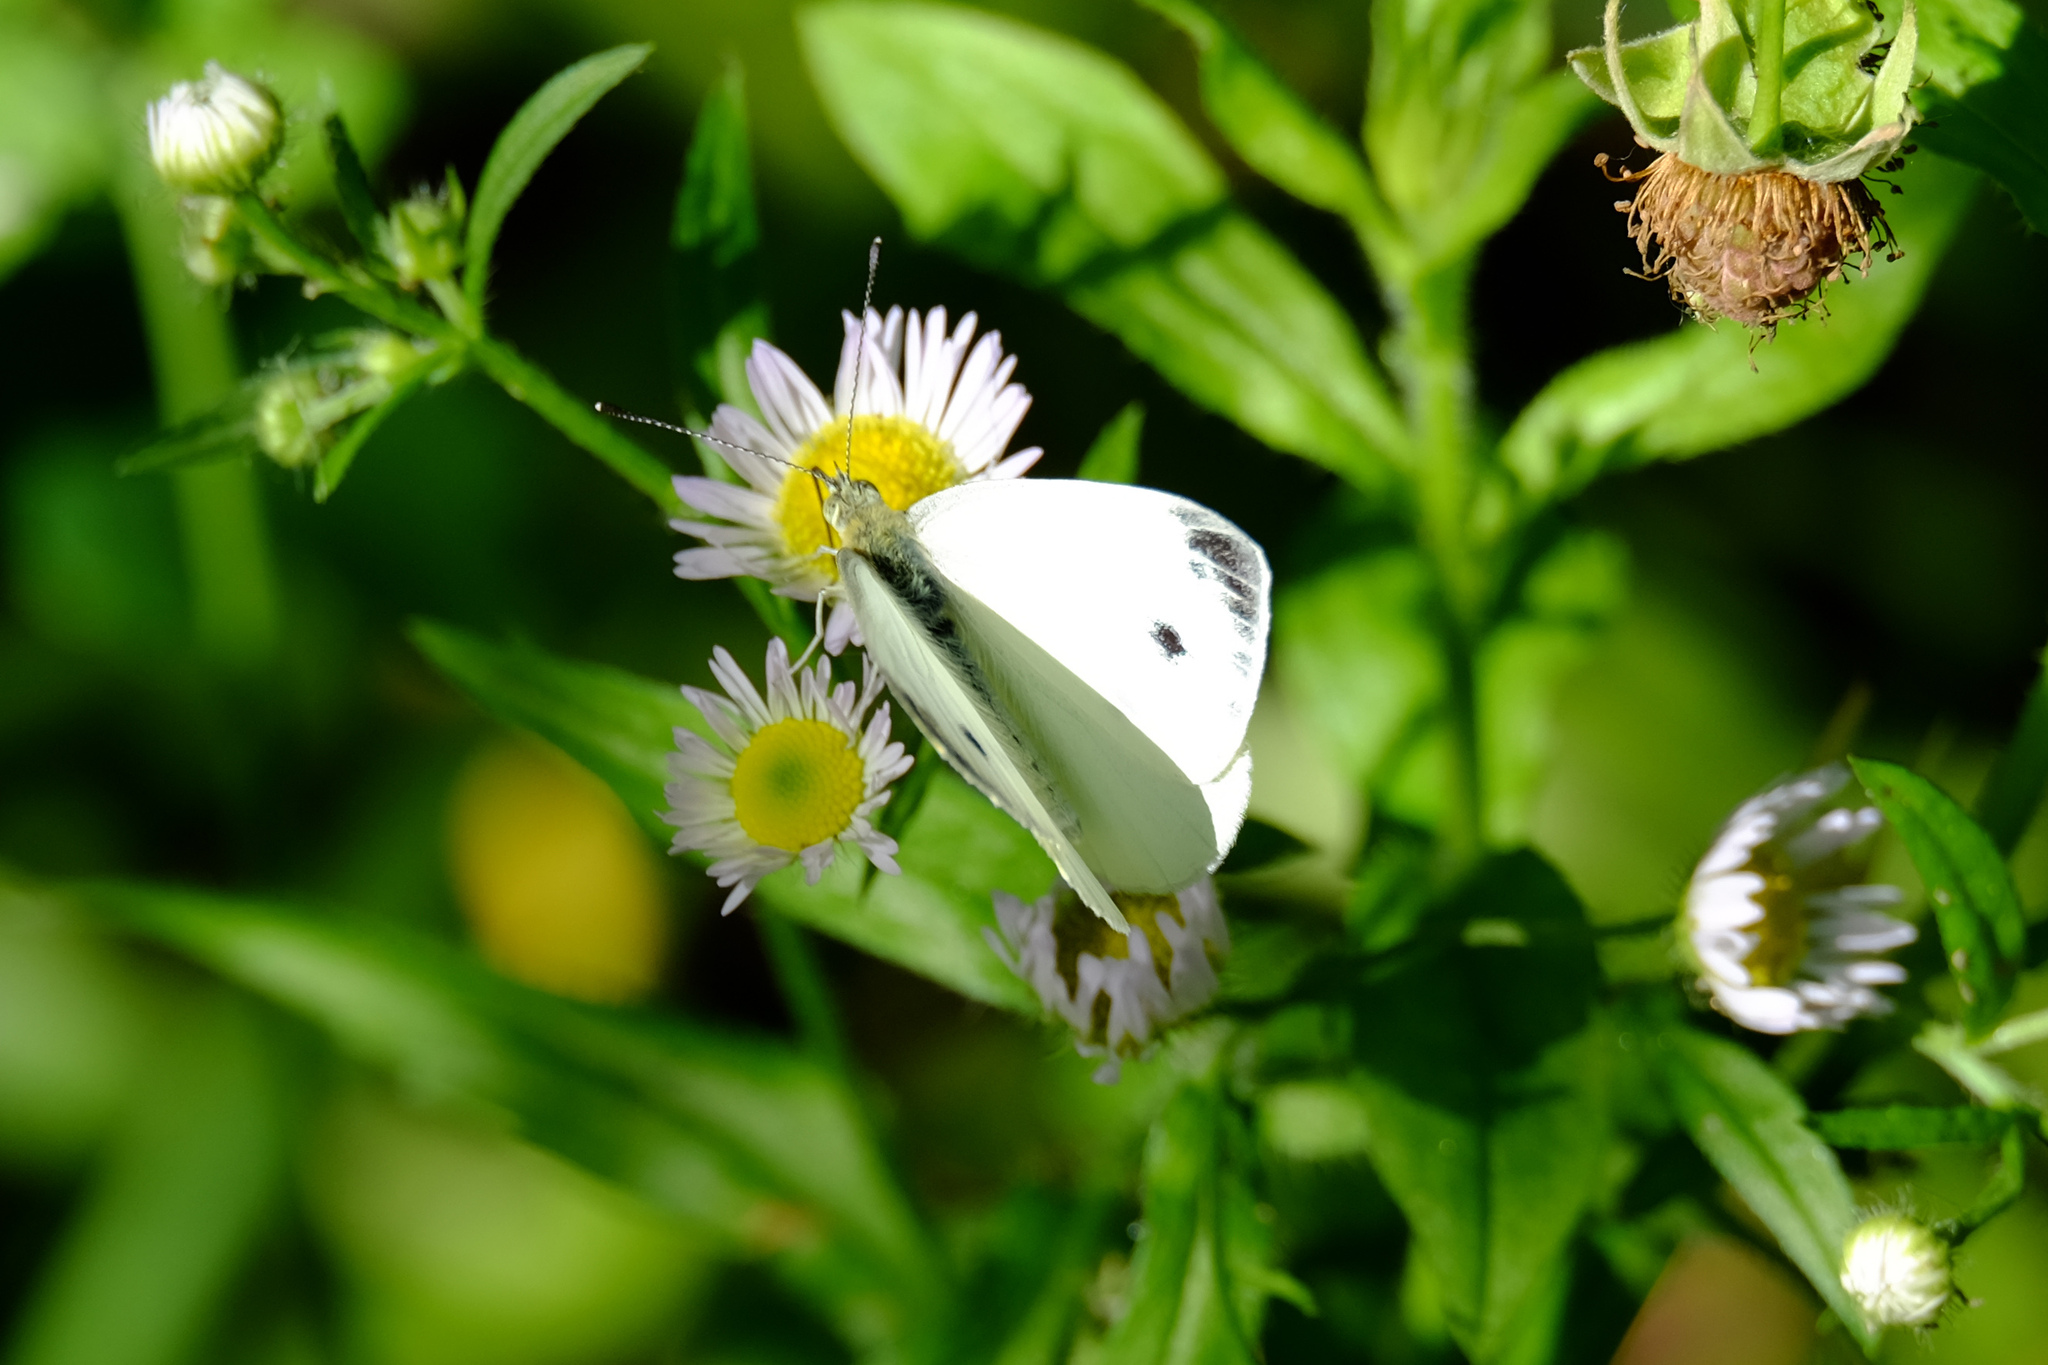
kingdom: Animalia
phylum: Arthropoda
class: Insecta
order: Lepidoptera
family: Pieridae
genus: Pieris
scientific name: Pieris napi
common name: Green-veined white
